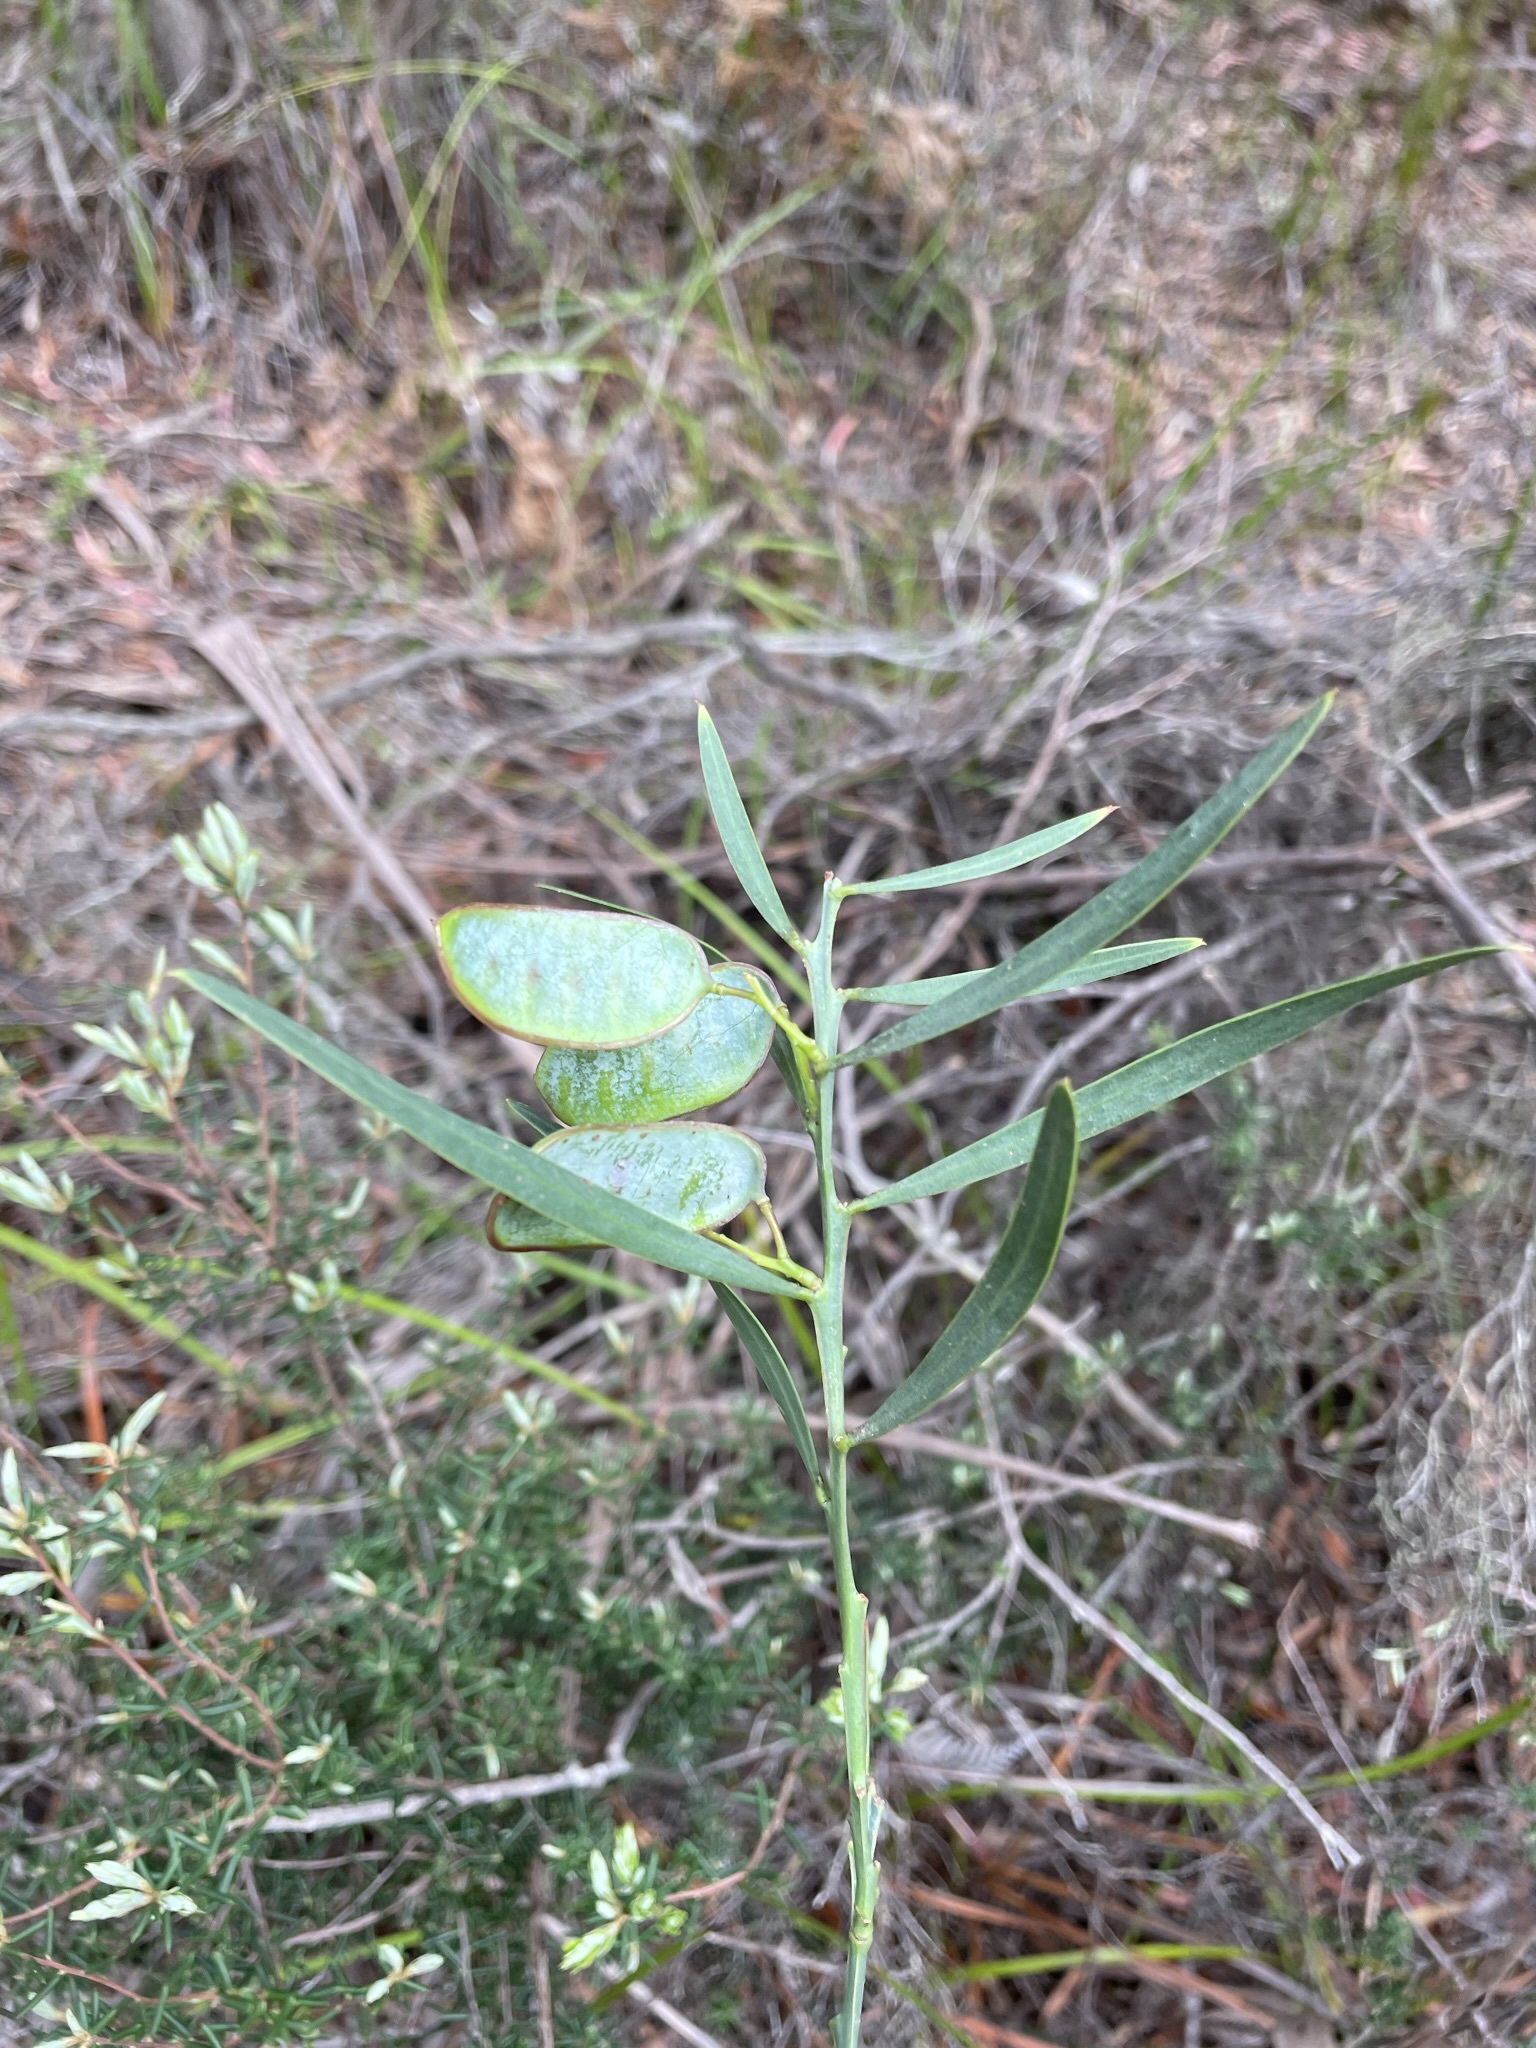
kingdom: Plantae
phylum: Tracheophyta
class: Magnoliopsida
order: Fabales
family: Fabaceae
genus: Acacia
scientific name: Acacia suaveolens
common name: Sweet acacia
